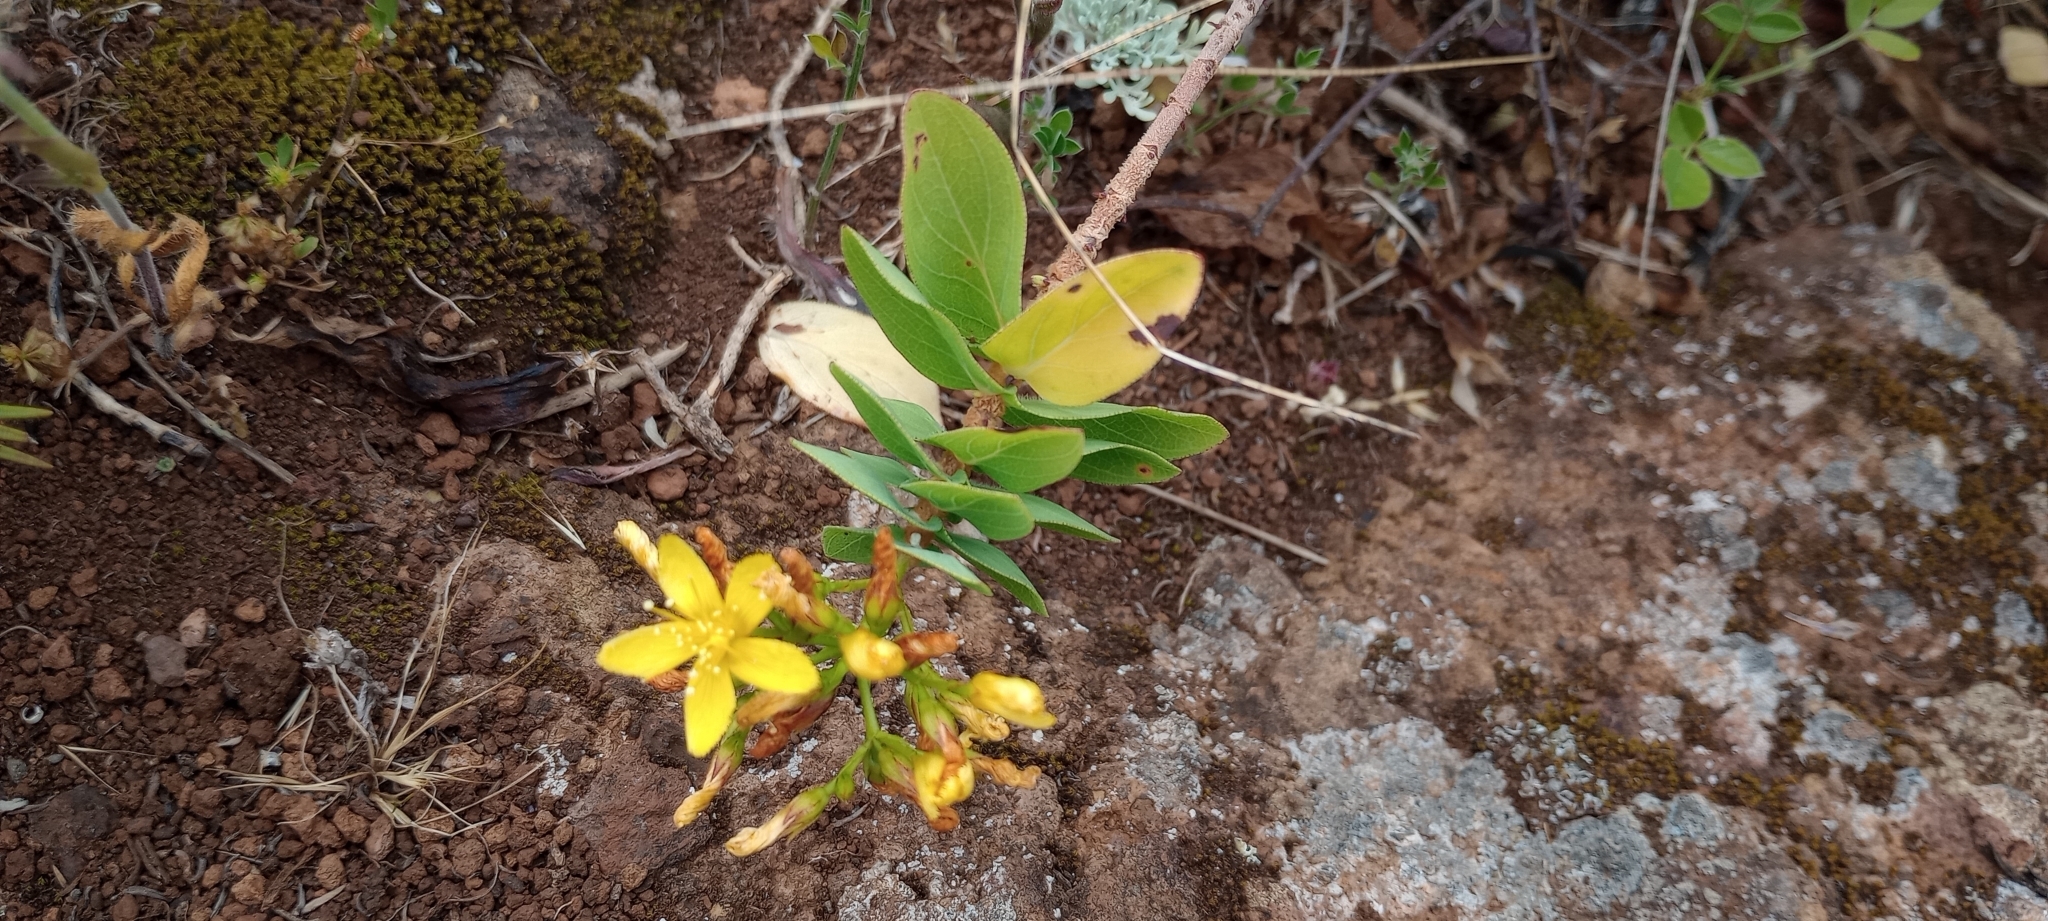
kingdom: Plantae
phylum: Tracheophyta
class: Magnoliopsida
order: Malpighiales
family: Hypericaceae
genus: Hypericum
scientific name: Hypericum reflexum
